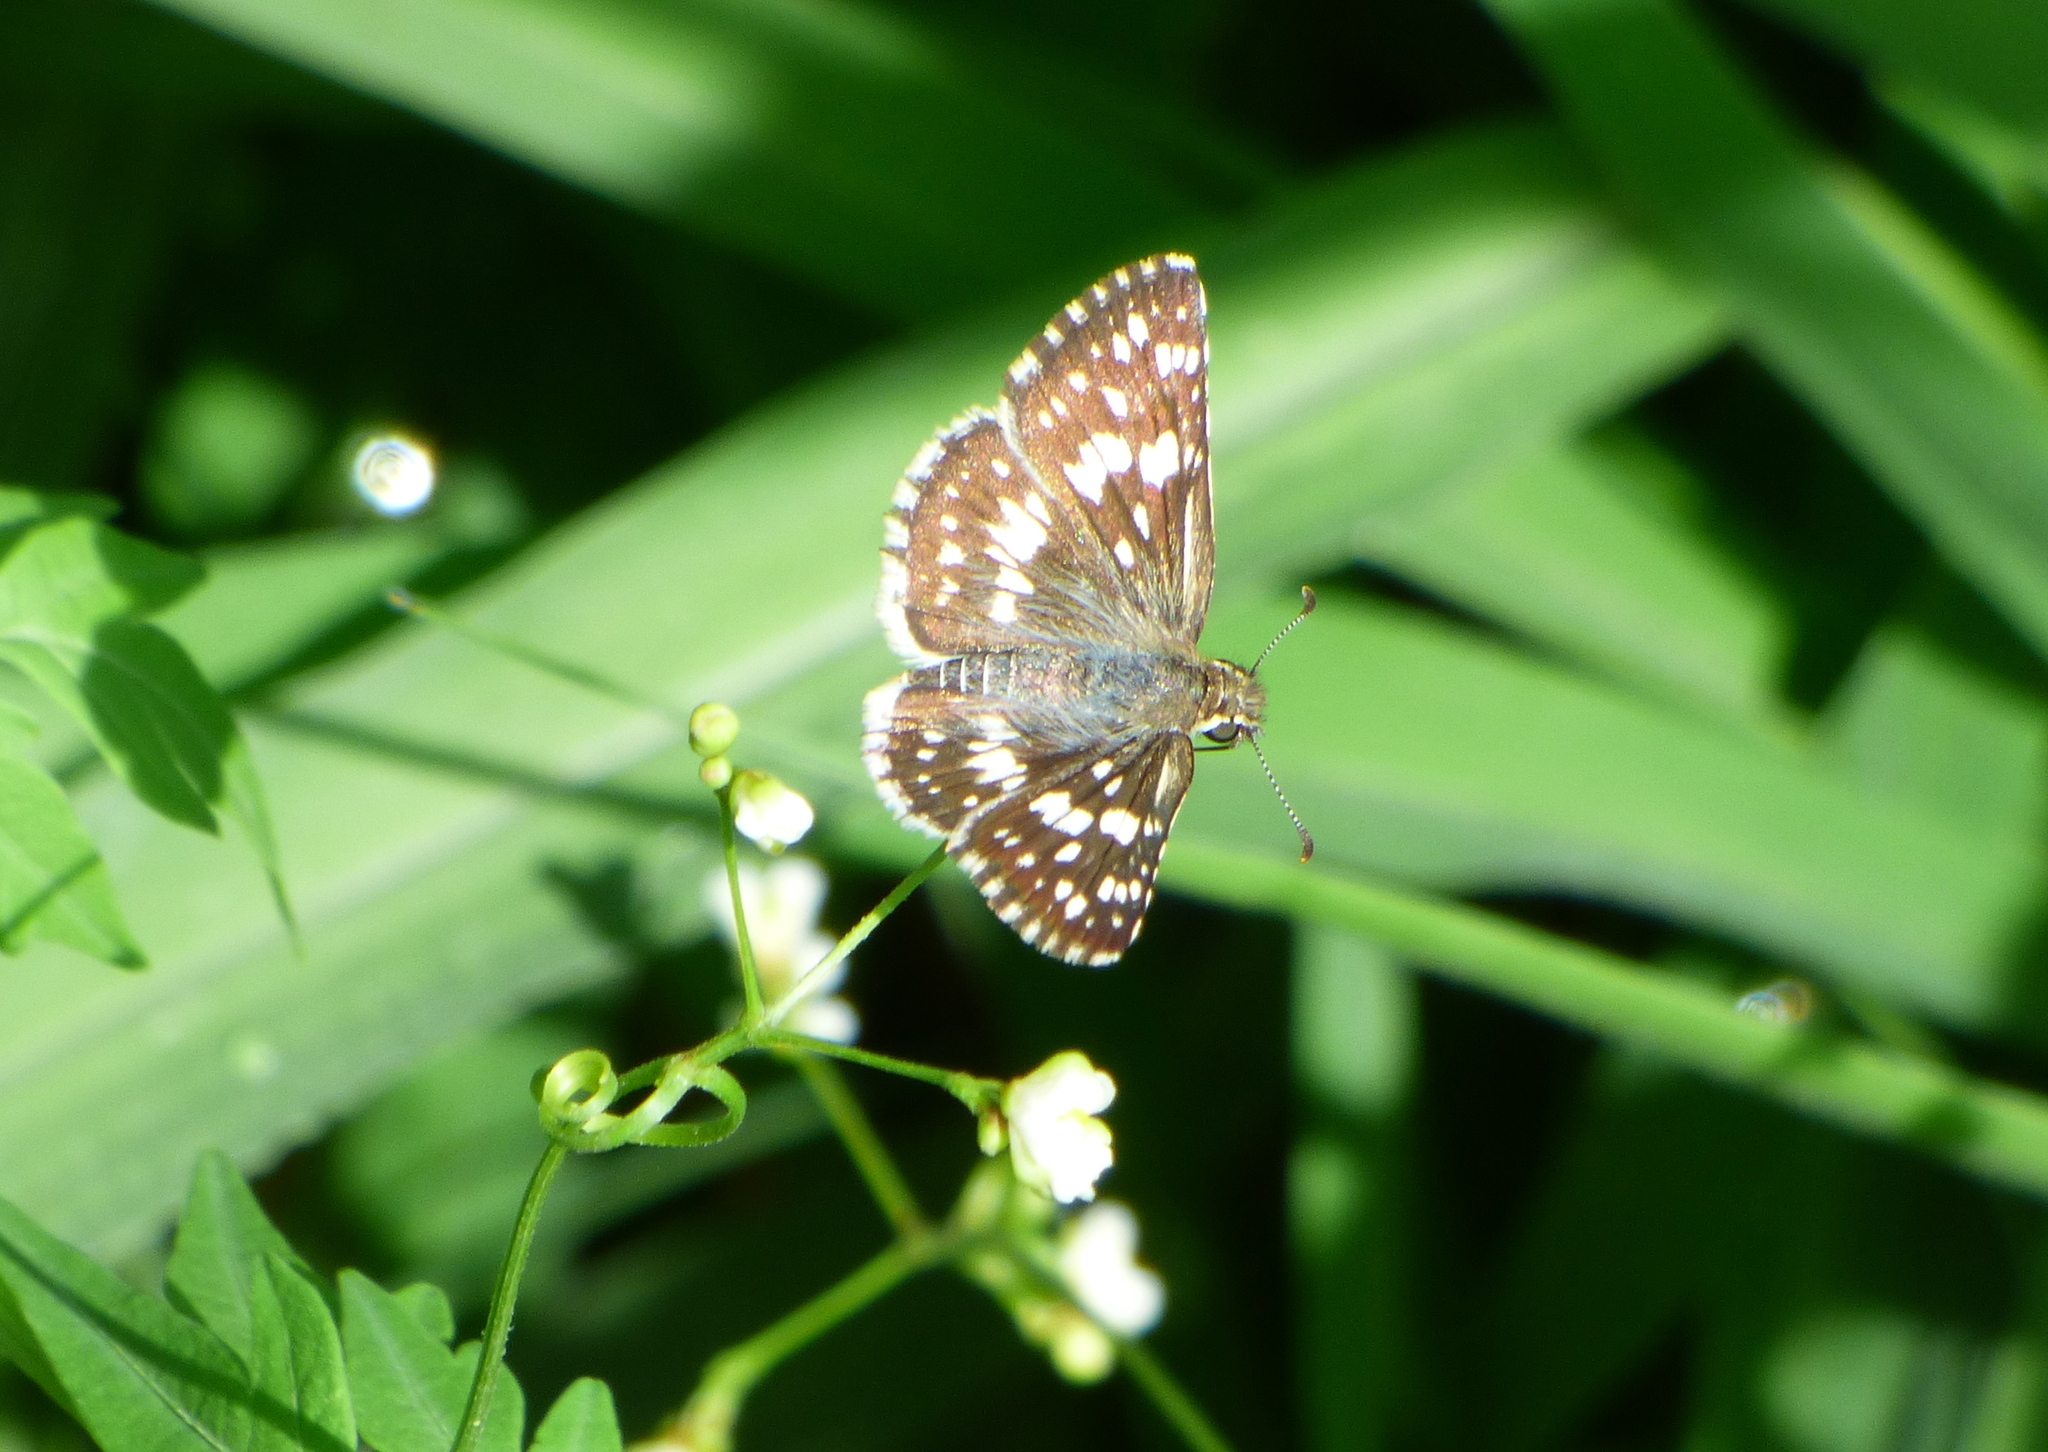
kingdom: Animalia
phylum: Arthropoda
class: Insecta
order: Lepidoptera
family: Hesperiidae
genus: Burnsius
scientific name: Burnsius orcynoides
